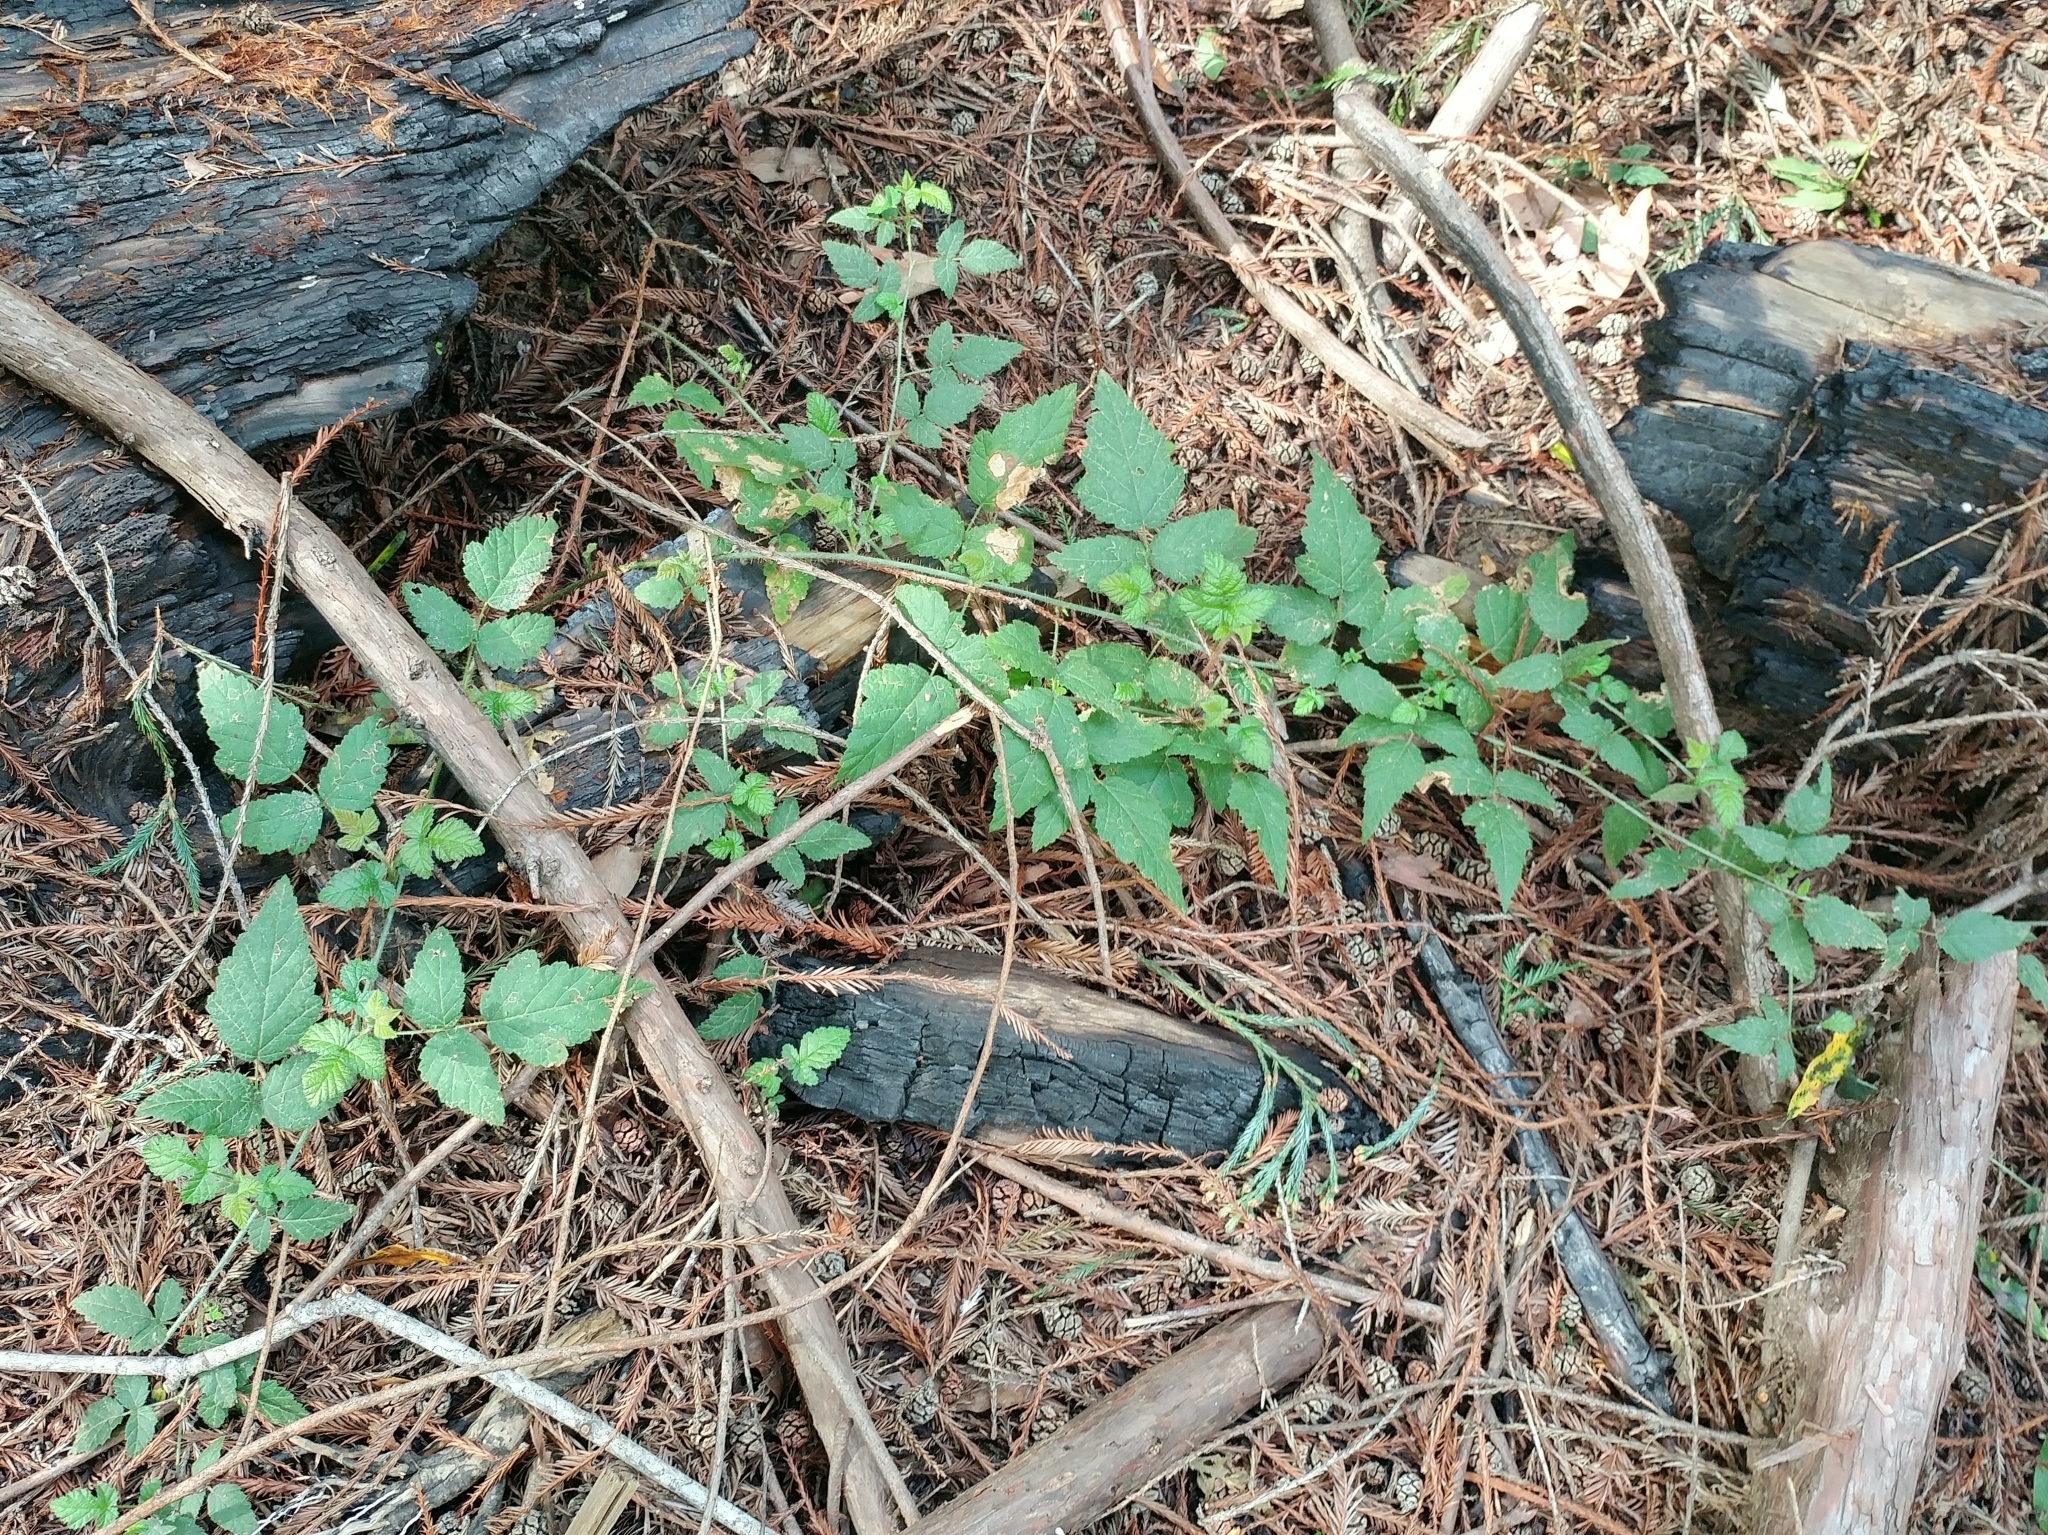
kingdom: Plantae
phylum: Tracheophyta
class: Magnoliopsida
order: Rosales
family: Rosaceae
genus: Rubus
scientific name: Rubus ursinus
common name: Pacific blackberry
